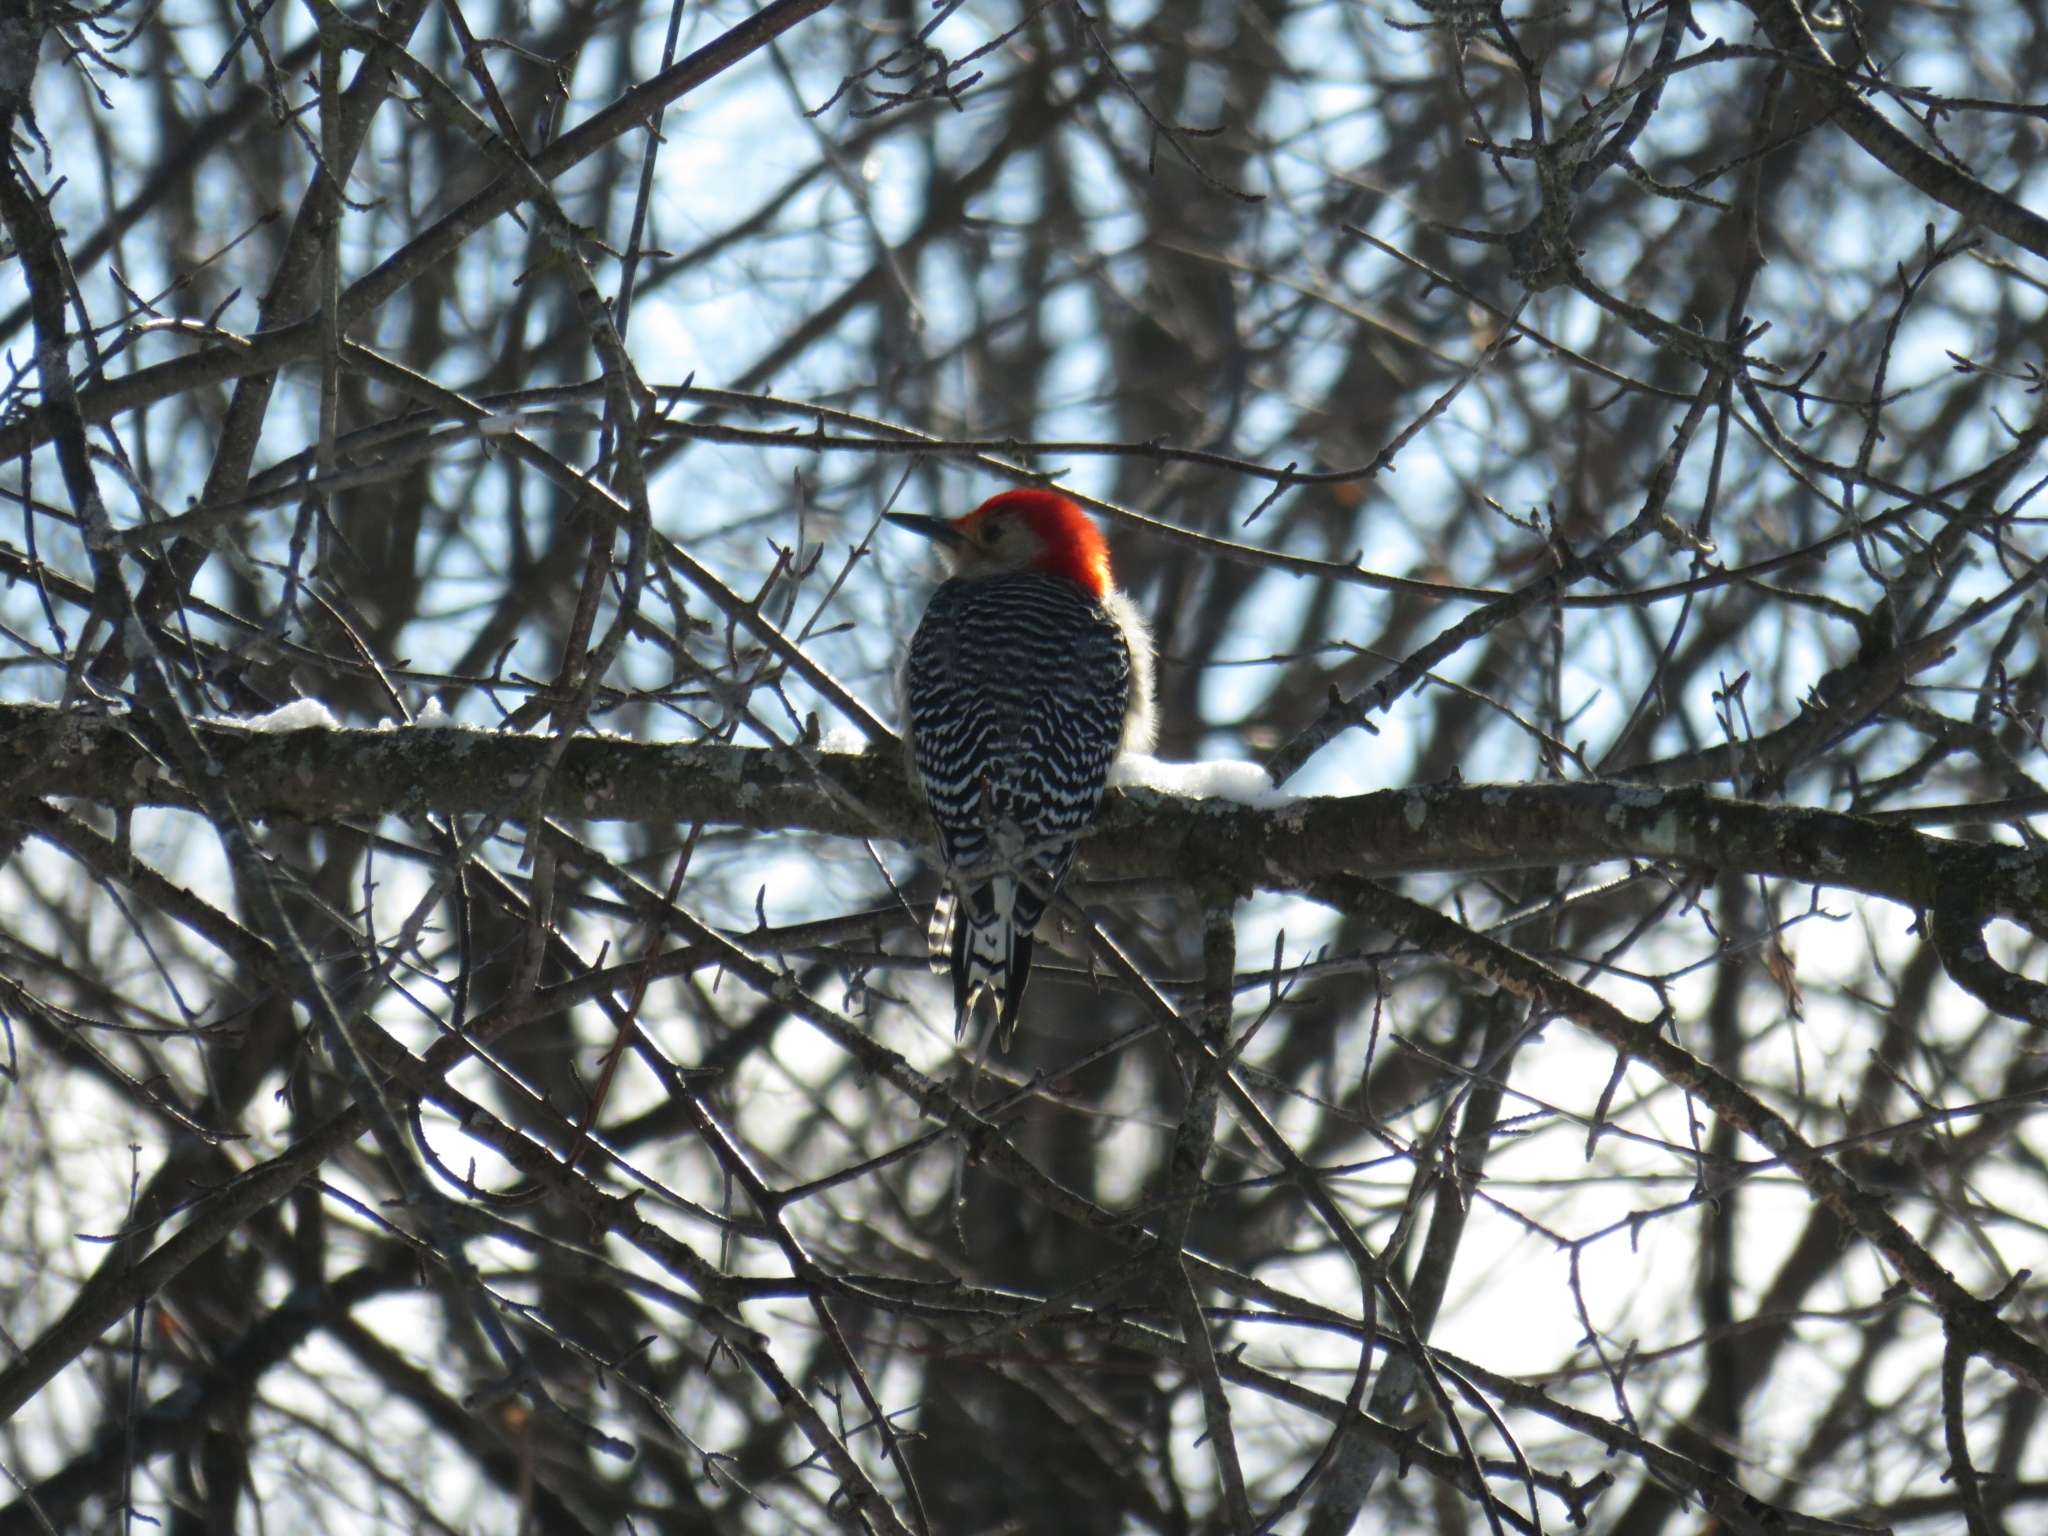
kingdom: Animalia
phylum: Chordata
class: Aves
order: Piciformes
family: Picidae
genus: Melanerpes
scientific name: Melanerpes carolinus
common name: Red-bellied woodpecker
